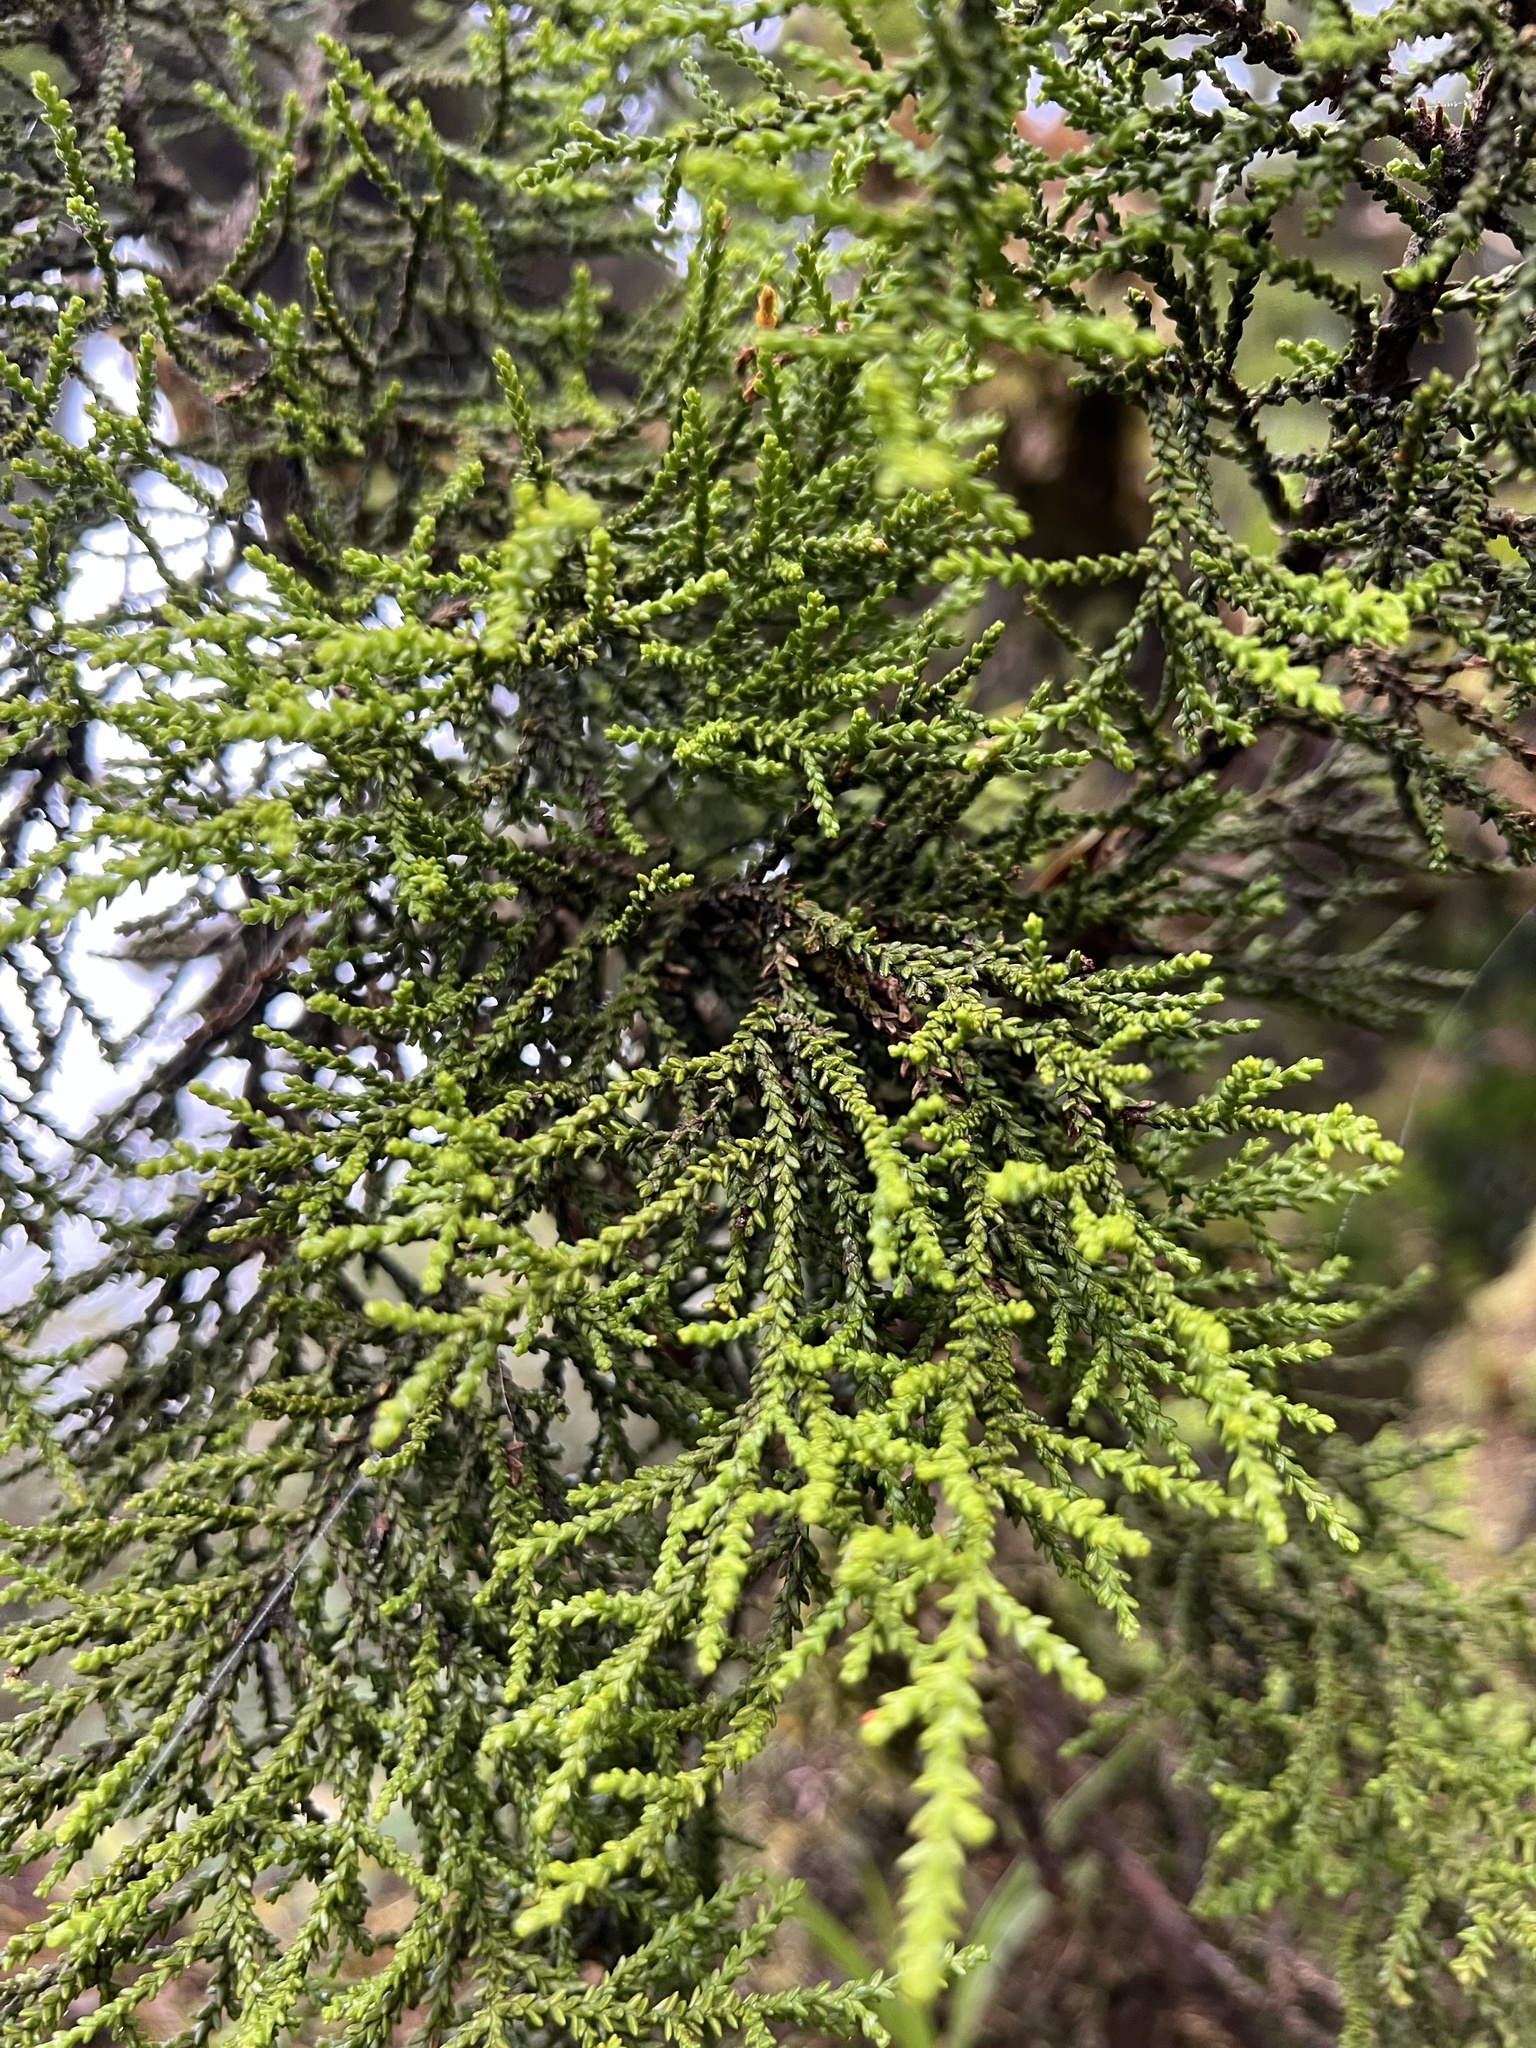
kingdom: Plantae
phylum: Tracheophyta
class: Pinopsida
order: Pinales
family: Podocarpaceae
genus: Lepidothamnus
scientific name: Lepidothamnus intermedius
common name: Yellow silver pine
